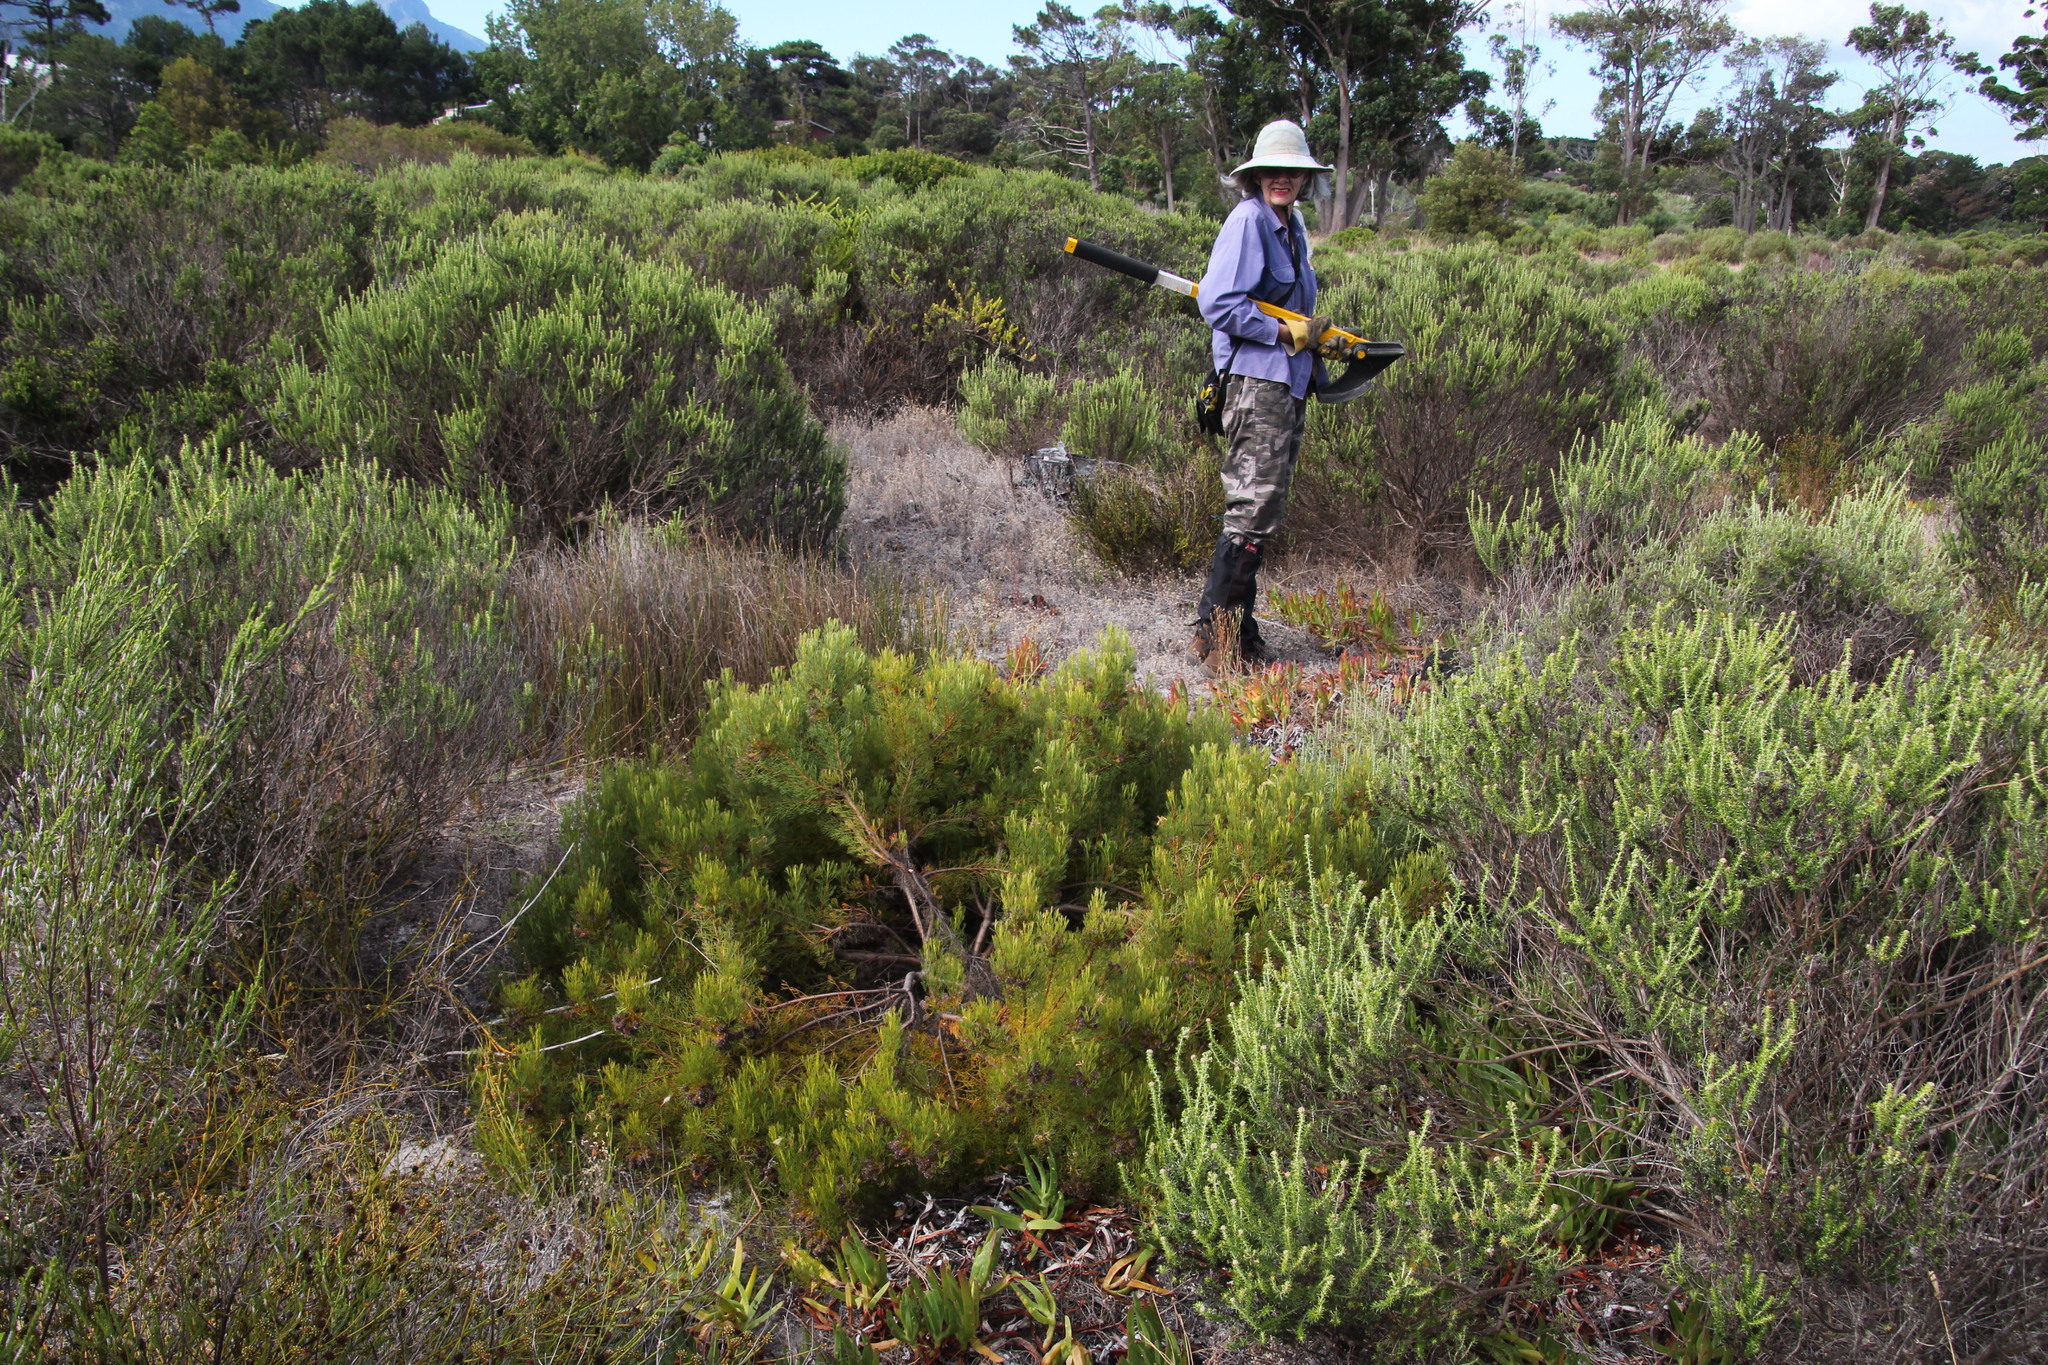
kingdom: Plantae
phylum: Tracheophyta
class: Magnoliopsida
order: Proteales
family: Proteaceae
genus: Serruria
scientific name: Serruria
